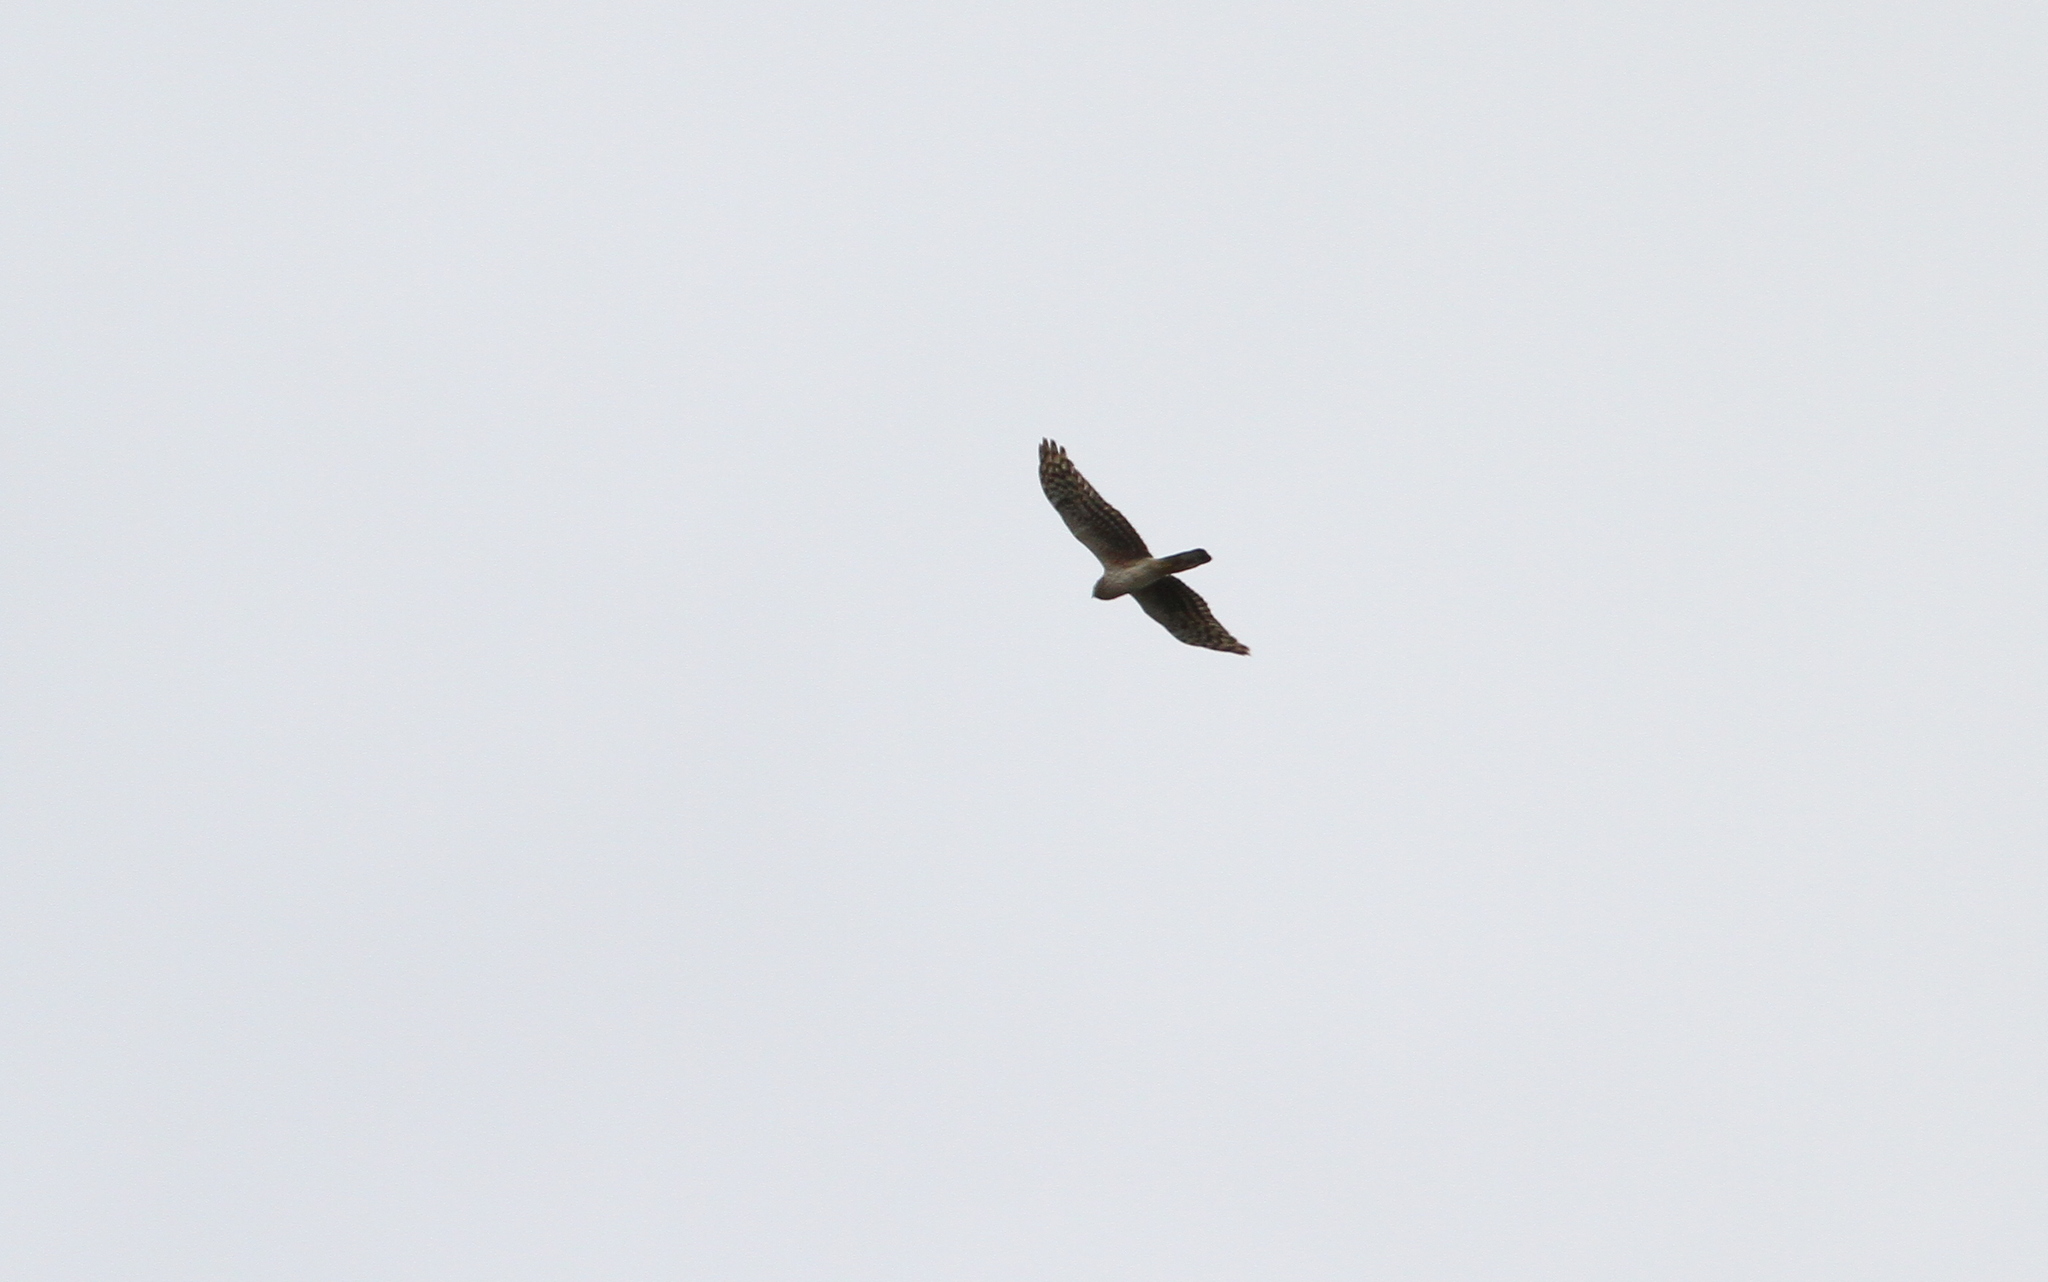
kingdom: Animalia
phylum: Chordata
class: Aves
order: Accipitriformes
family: Accipitridae
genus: Circus
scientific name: Circus cyaneus
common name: Hen harrier
